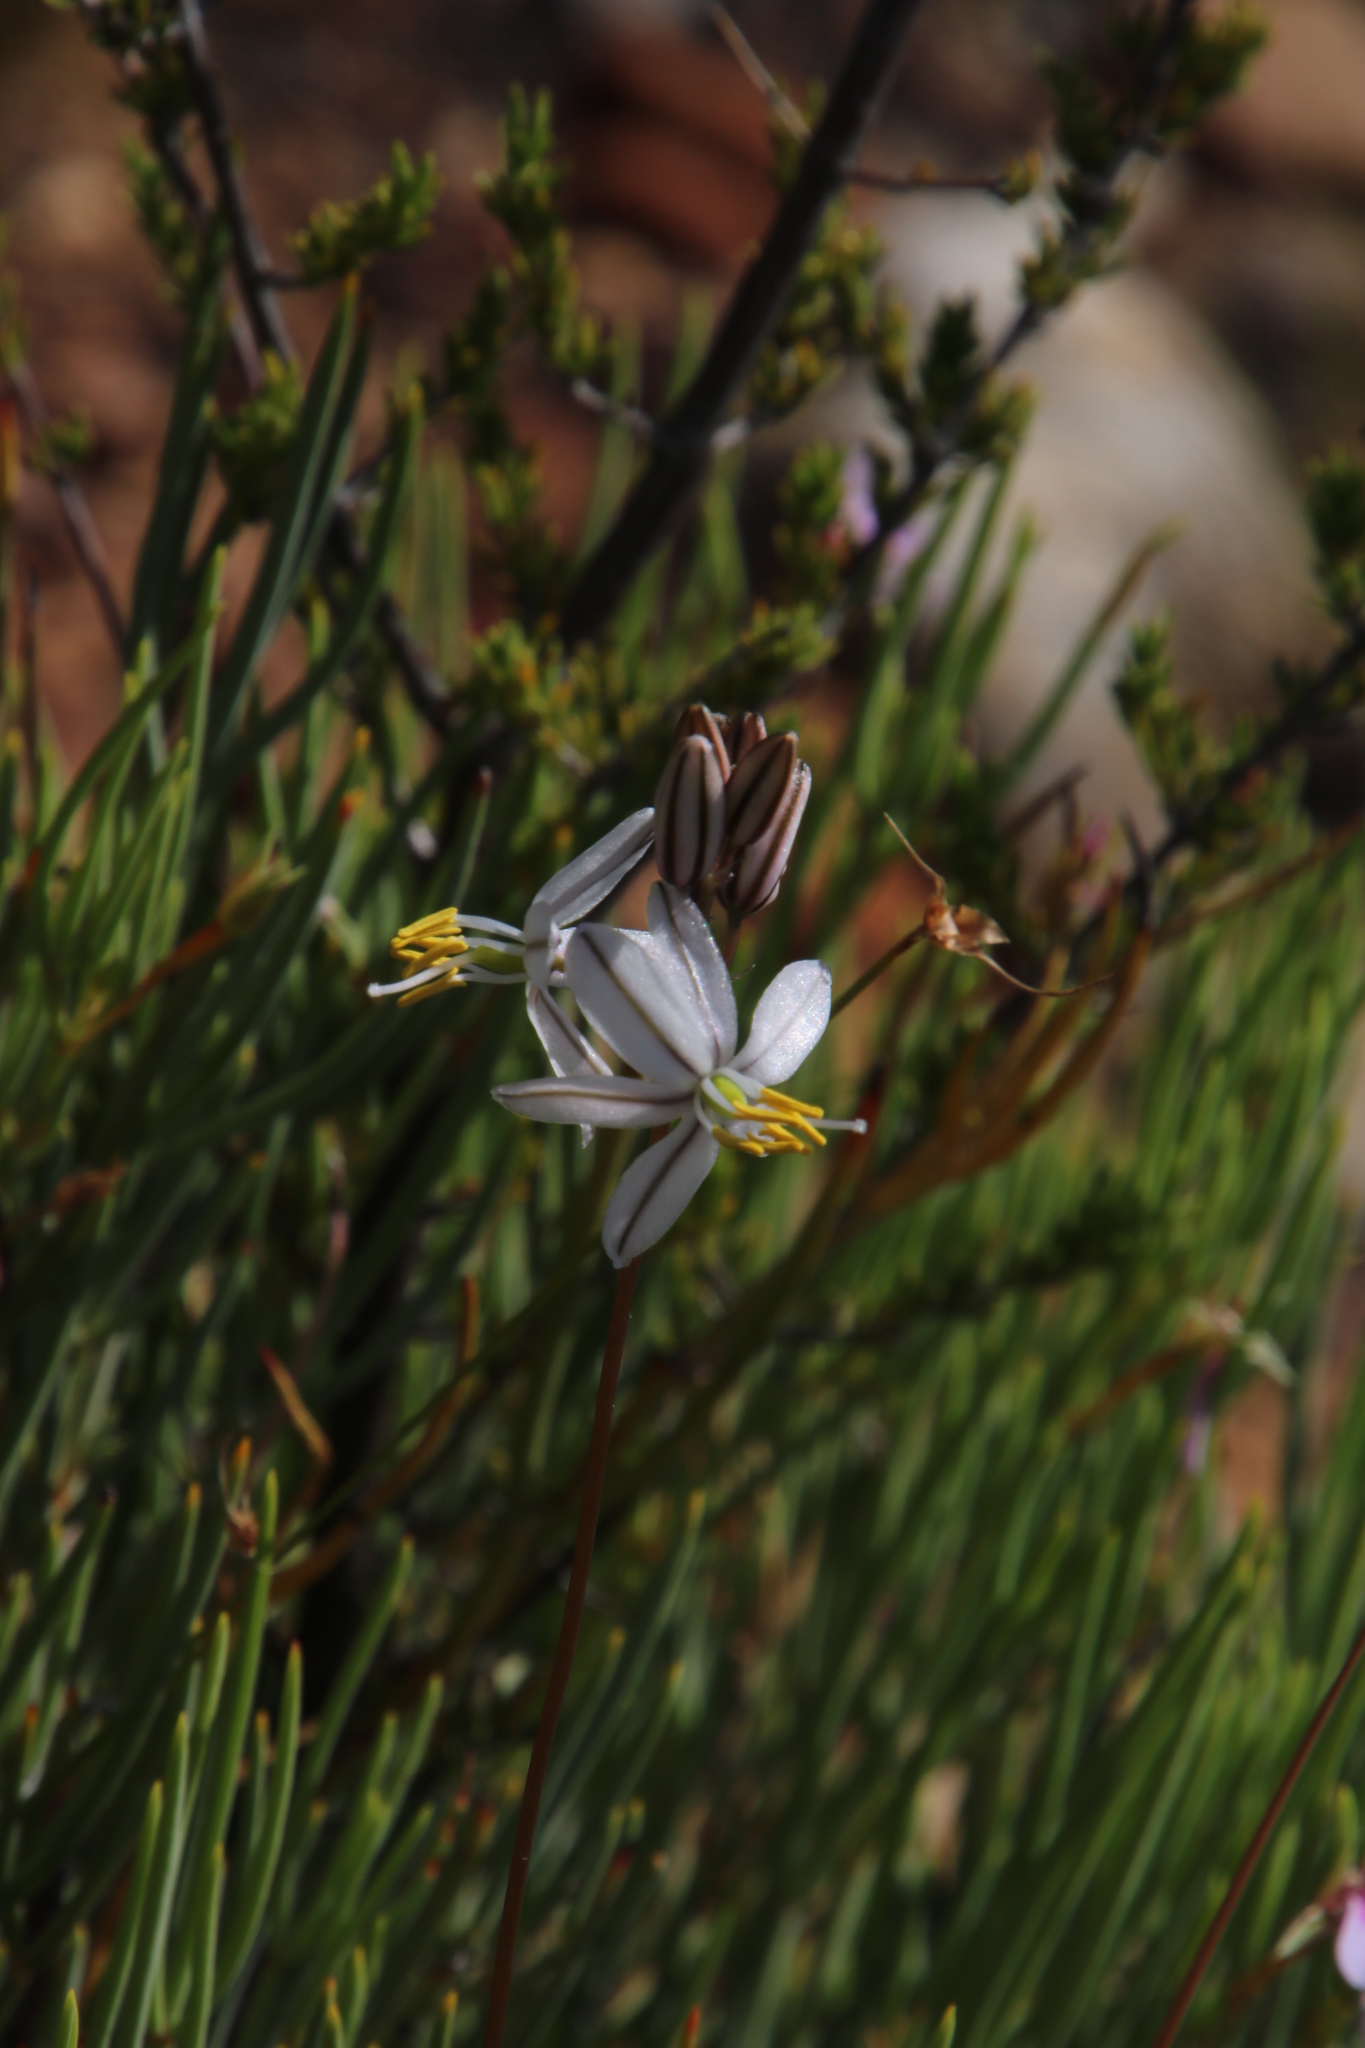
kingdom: Plantae
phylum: Tracheophyta
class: Liliopsida
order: Asparagales
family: Asparagaceae
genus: Drimia
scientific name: Drimia exuviata
